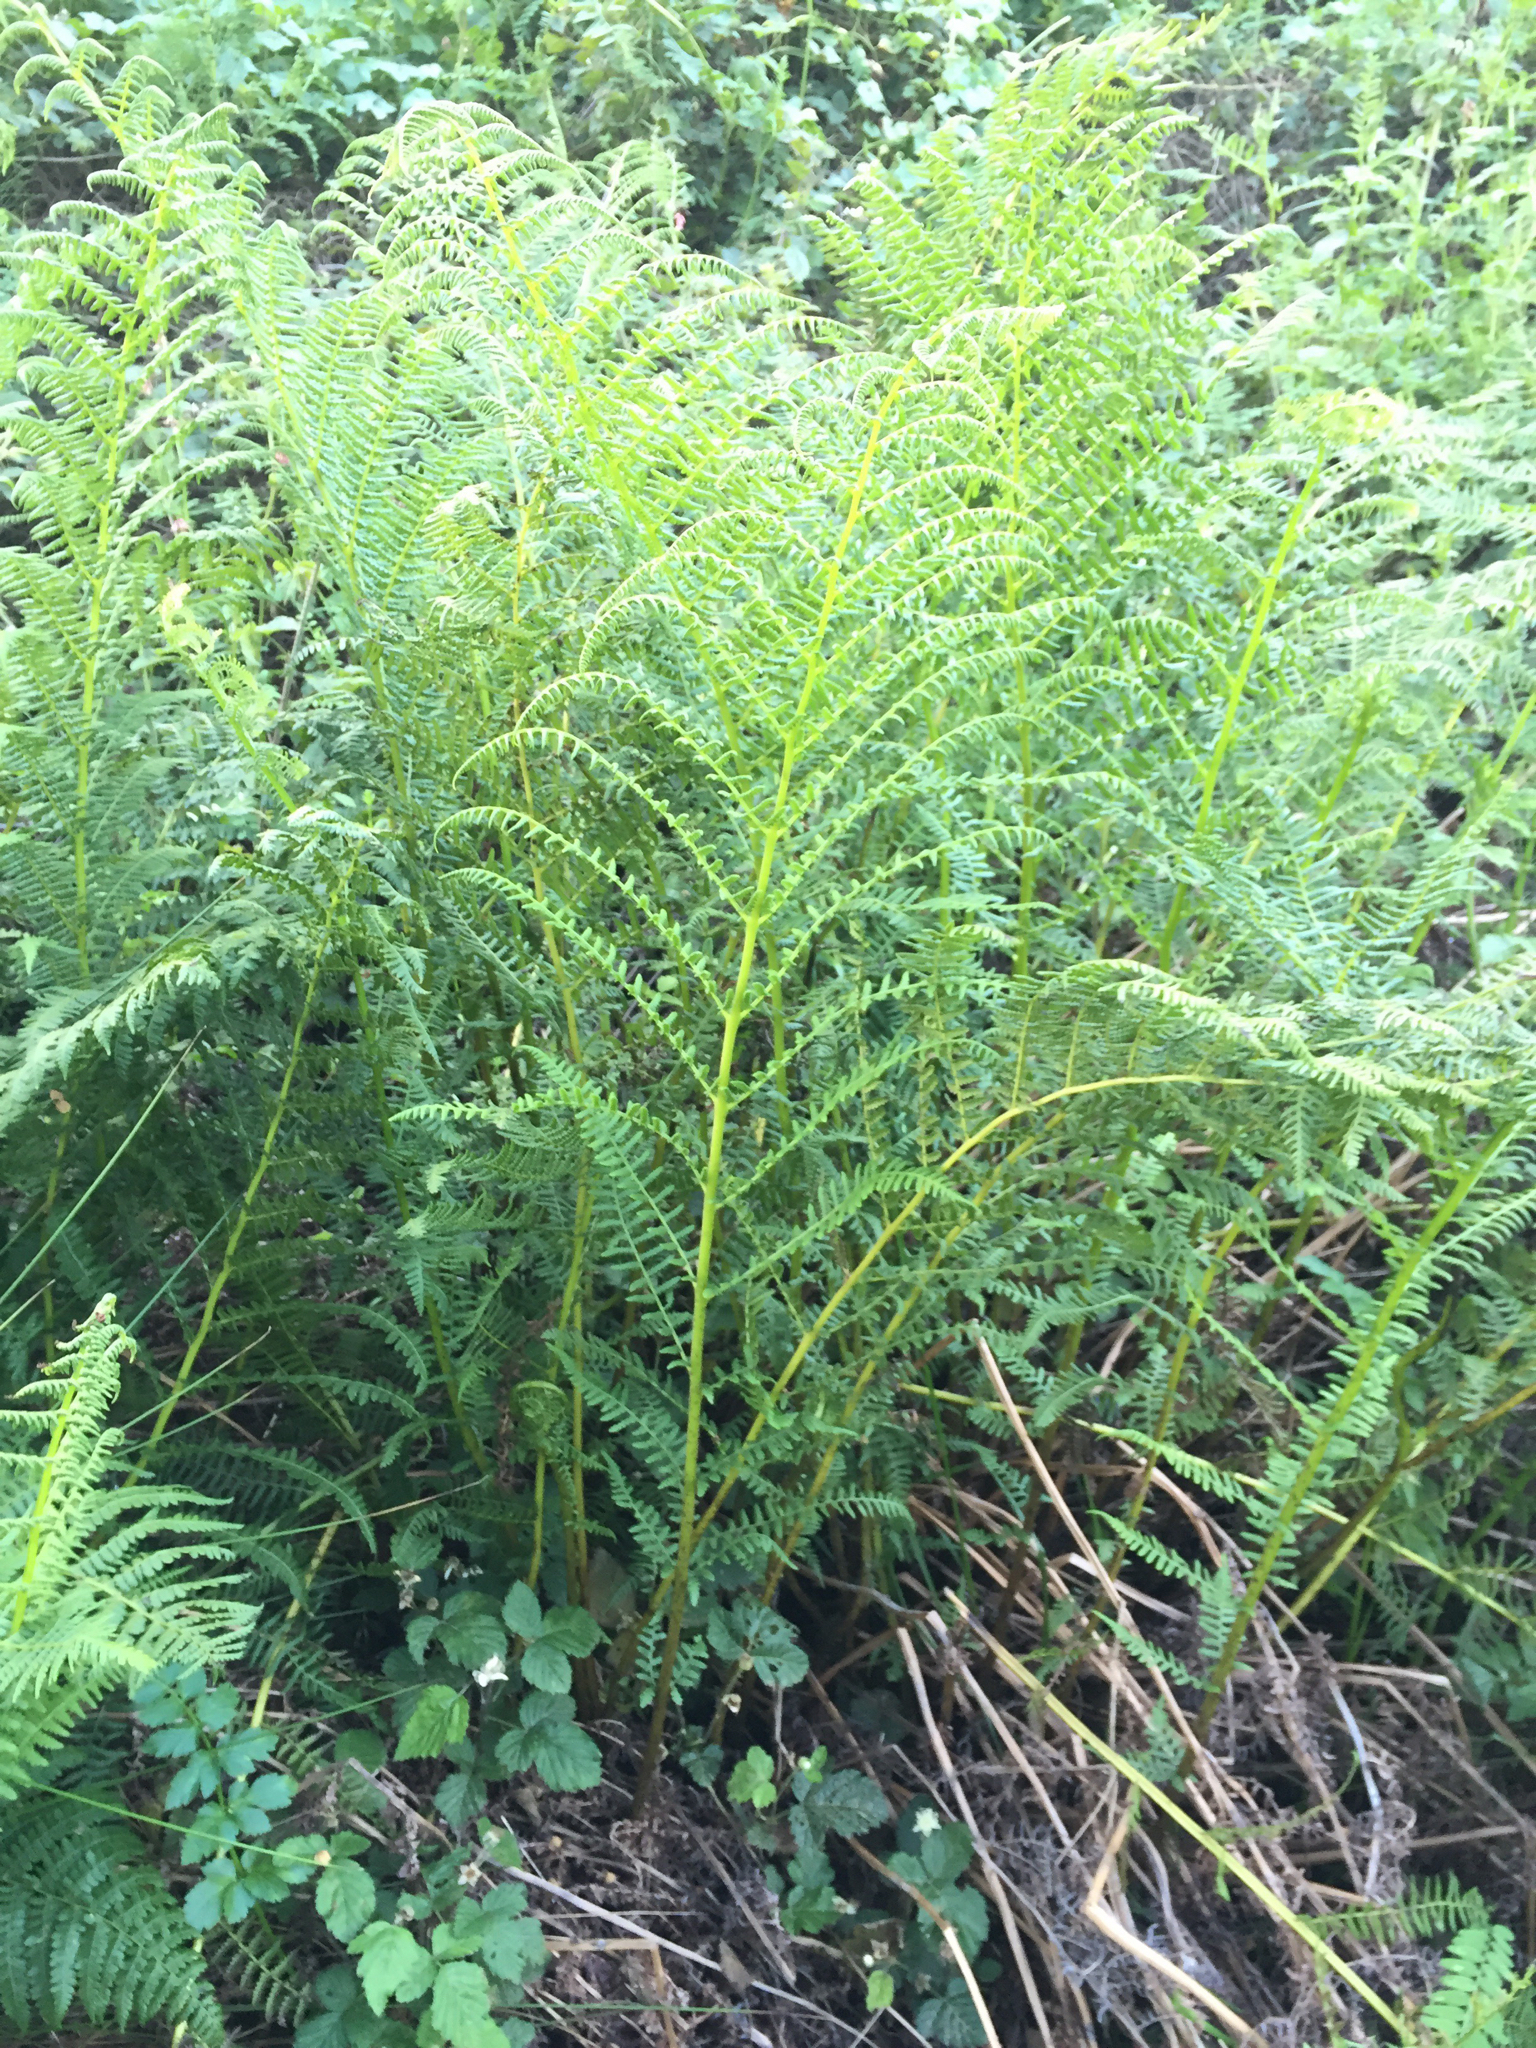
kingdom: Plantae
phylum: Tracheophyta
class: Polypodiopsida
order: Polypodiales
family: Athyriaceae
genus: Athyrium
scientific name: Athyrium filix-femina
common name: Lady fern
